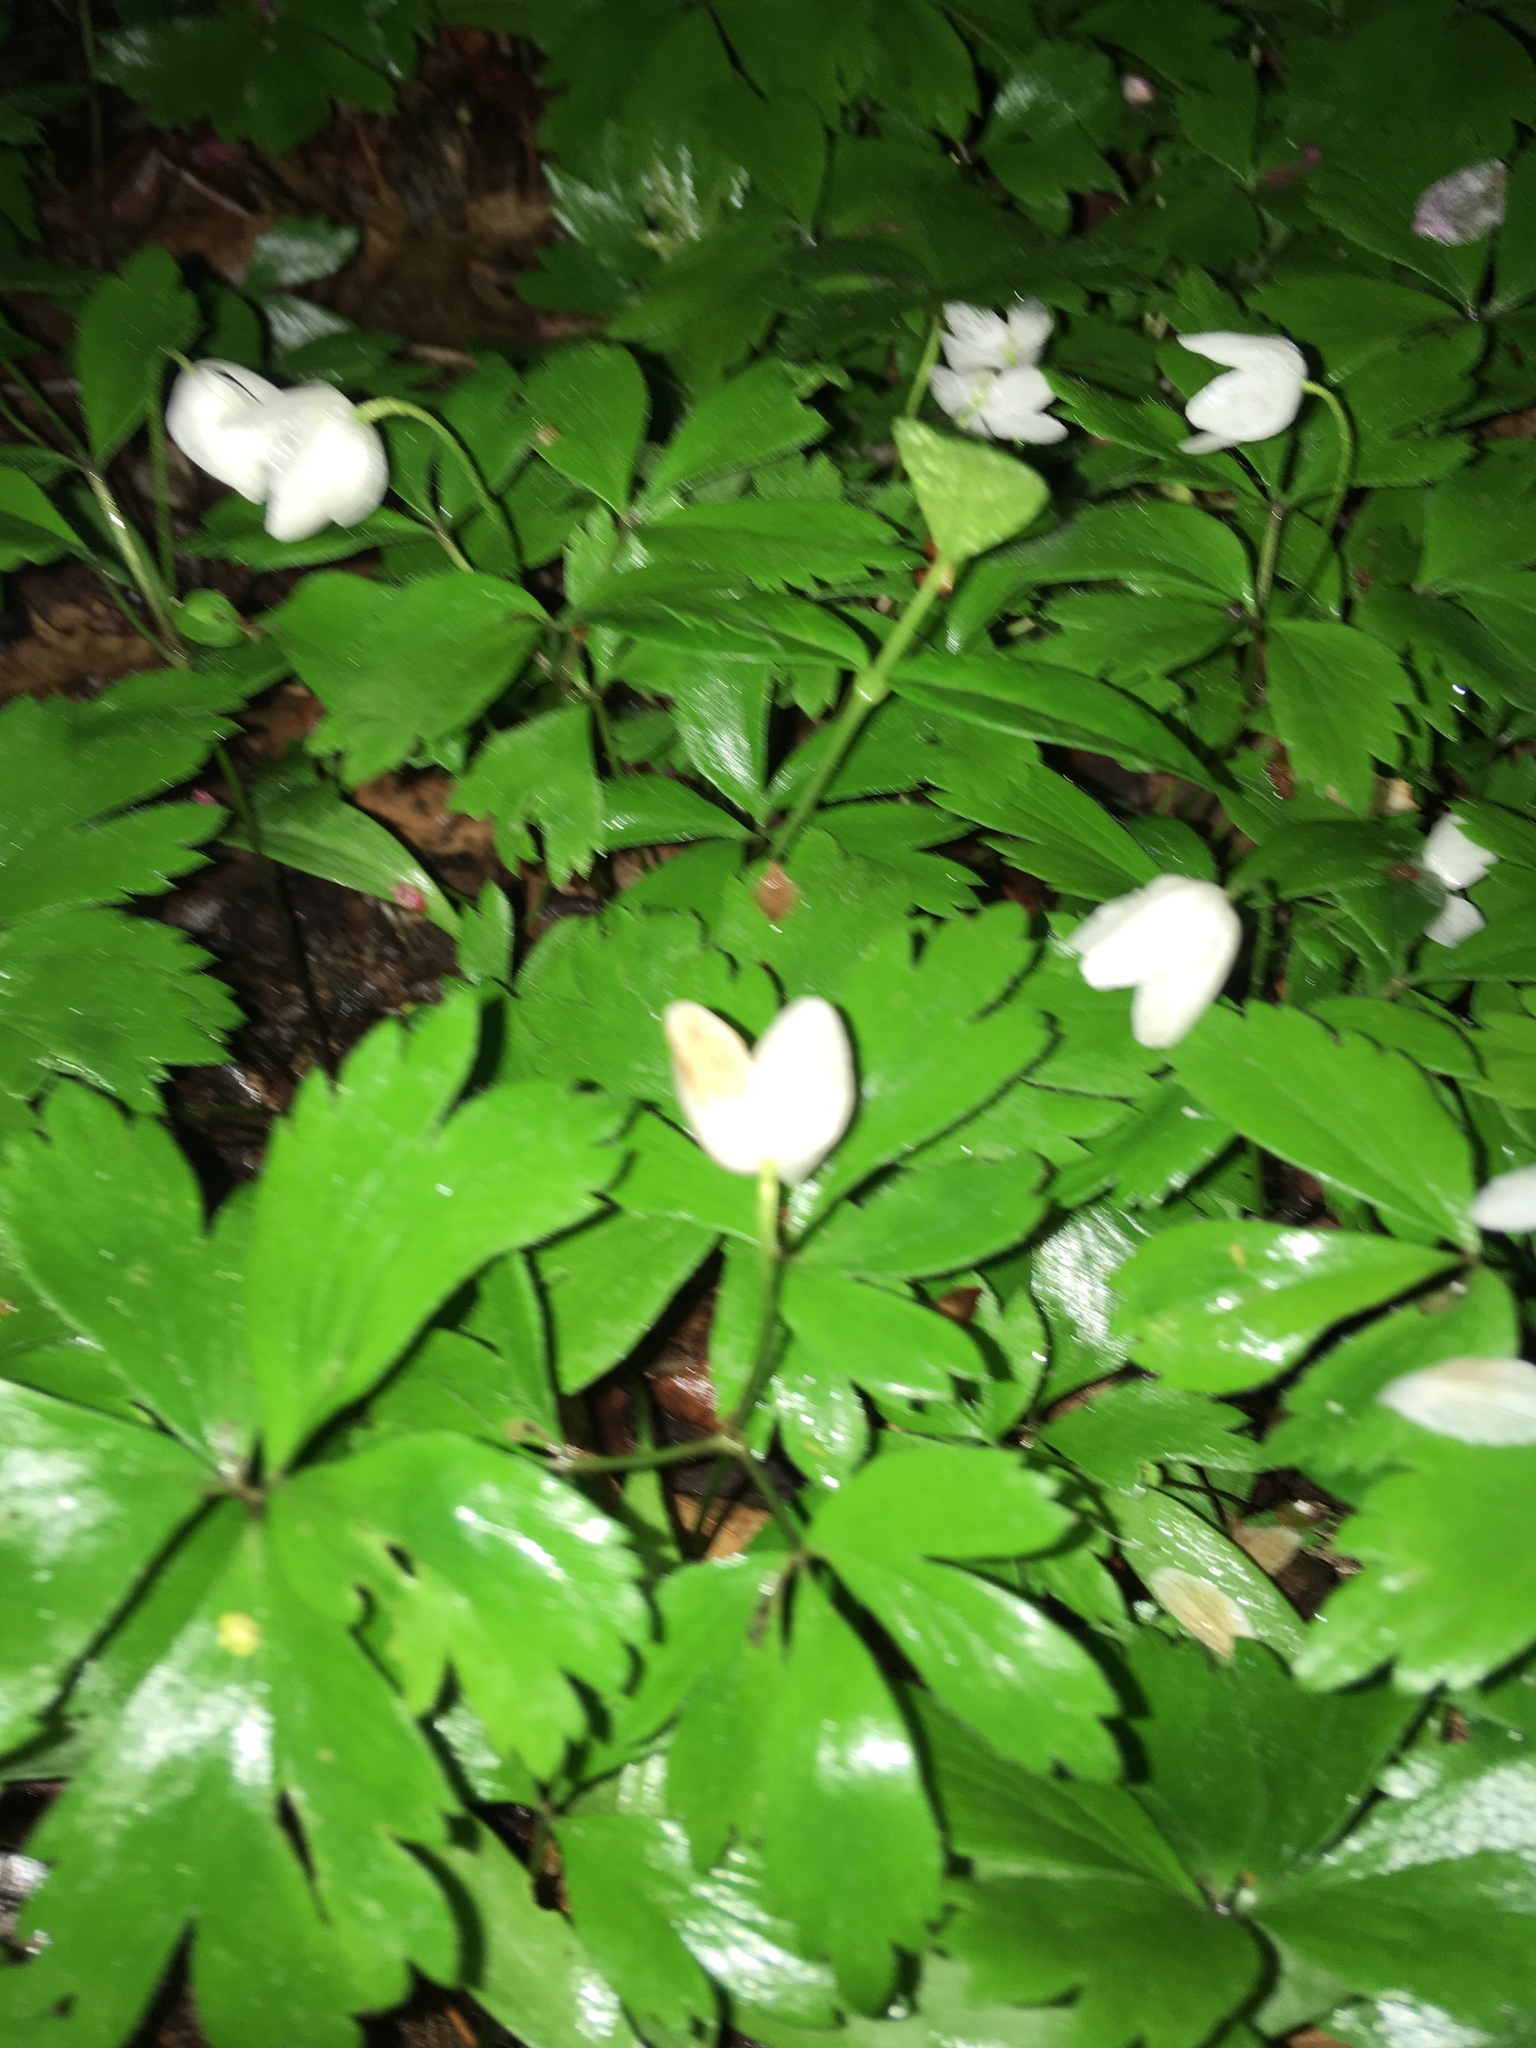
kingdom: Plantae
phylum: Tracheophyta
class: Magnoliopsida
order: Ranunculales
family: Ranunculaceae
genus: Anemone
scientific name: Anemone quinquefolia
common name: Wood anemone
